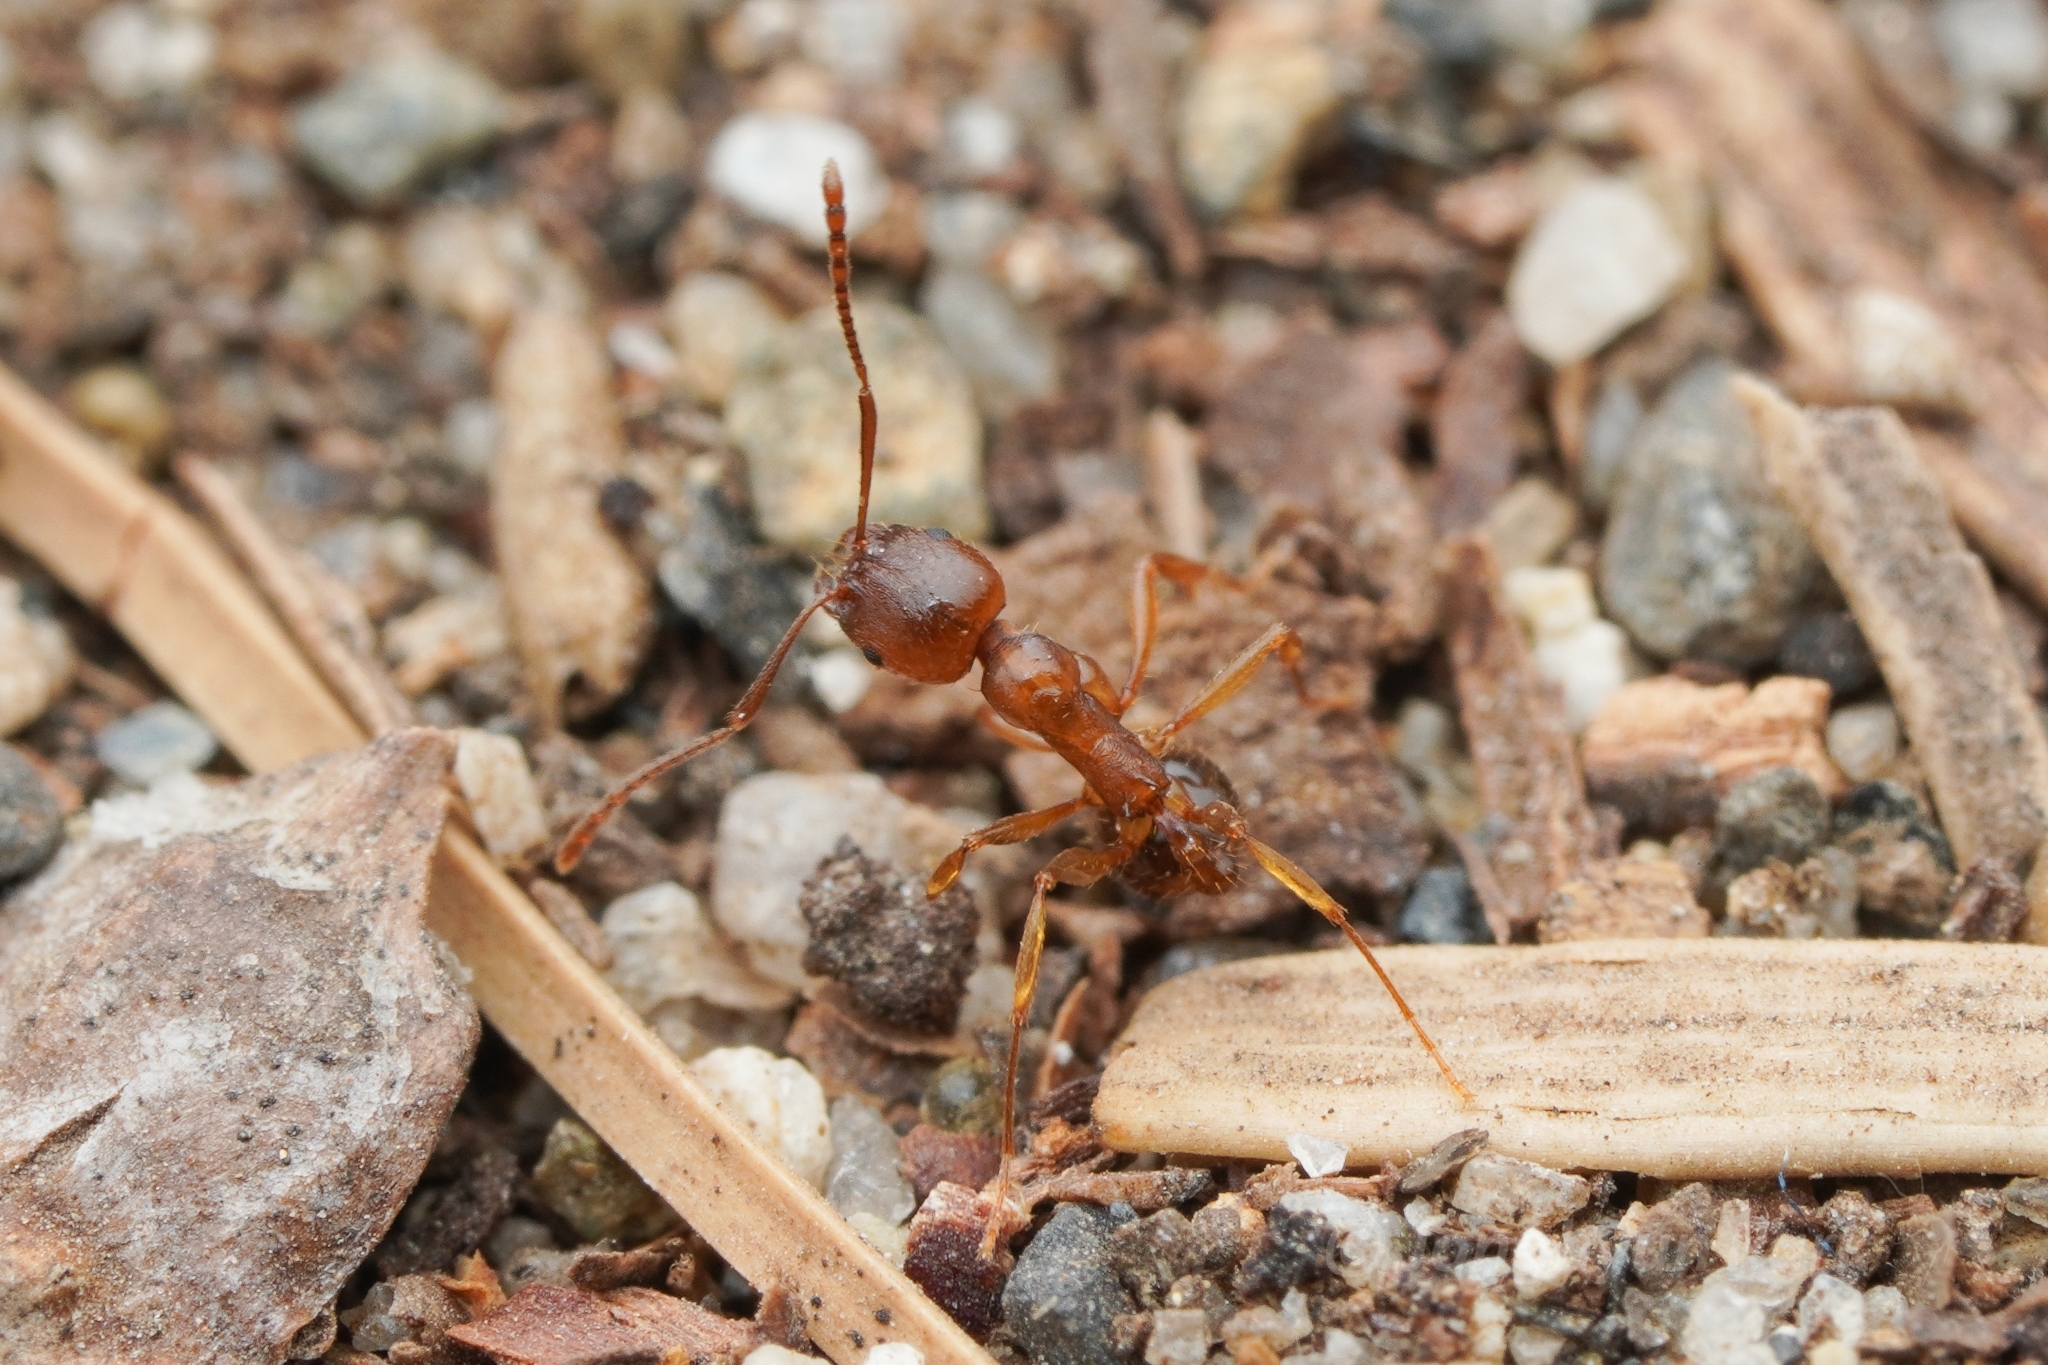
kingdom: Animalia
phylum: Arthropoda
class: Insecta
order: Hymenoptera
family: Formicidae
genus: Aphaenogaster
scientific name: Aphaenogaster occidentalis
